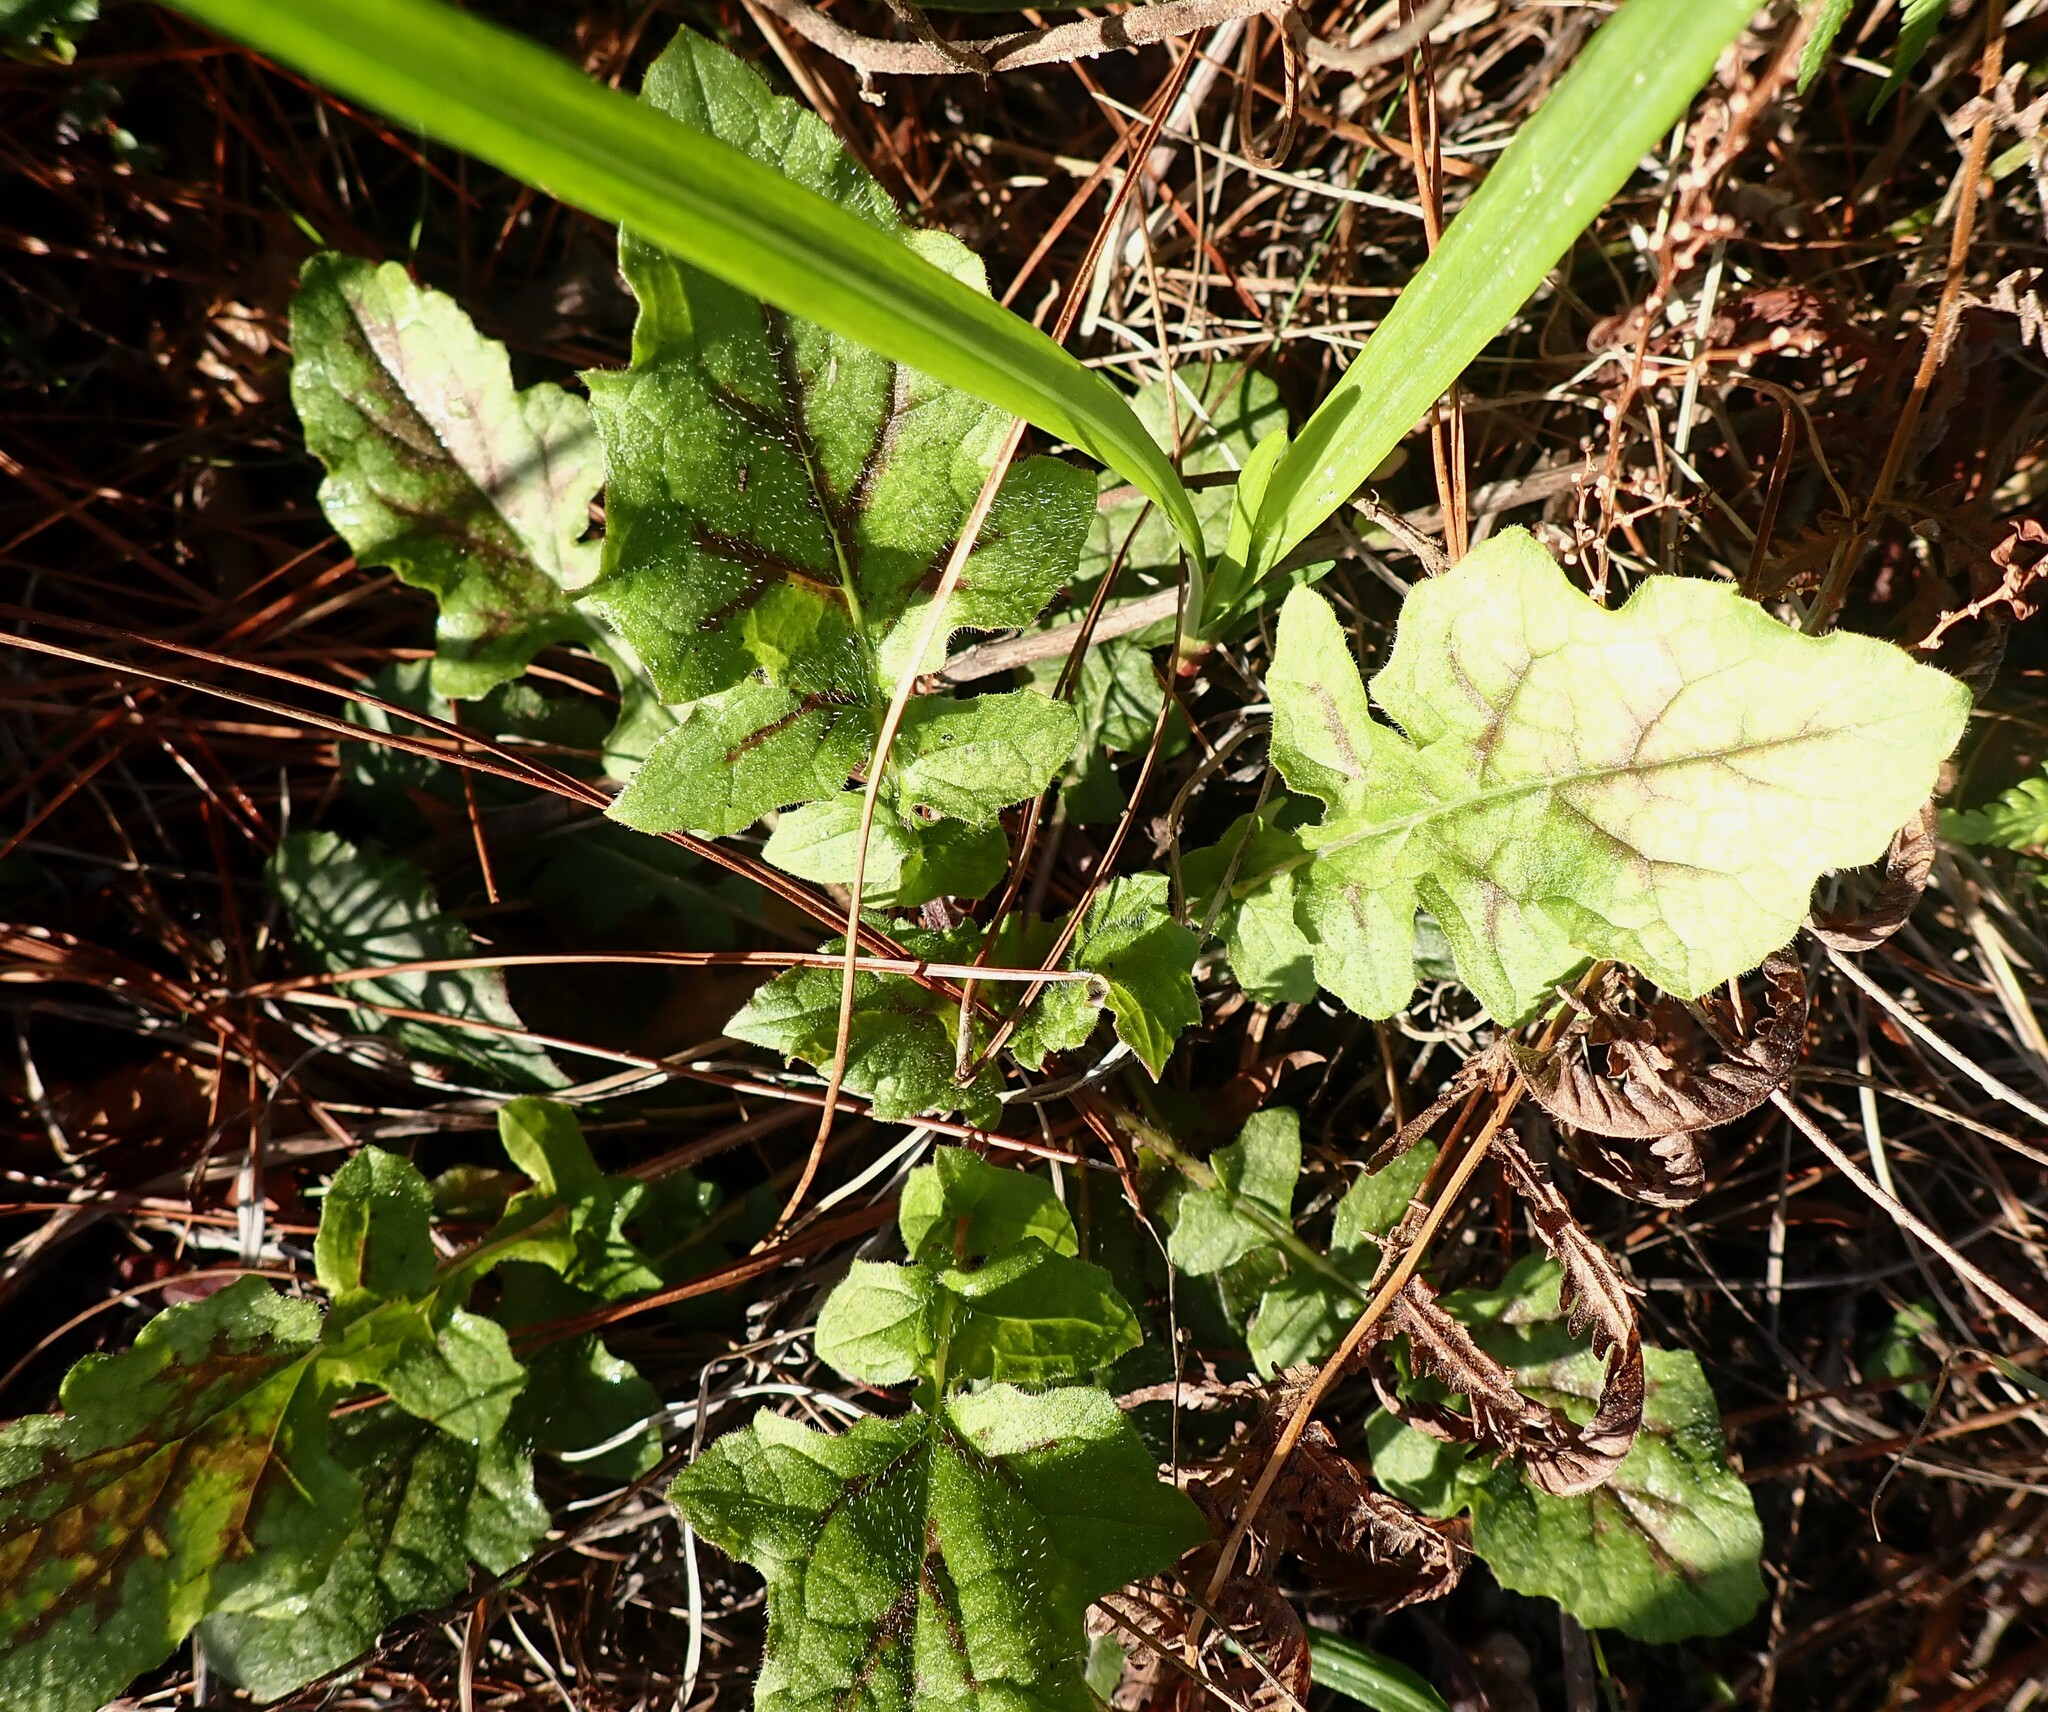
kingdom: Plantae
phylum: Tracheophyta
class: Magnoliopsida
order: Lamiales
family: Lamiaceae
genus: Salvia
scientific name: Salvia lyrata
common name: Cancerweed
